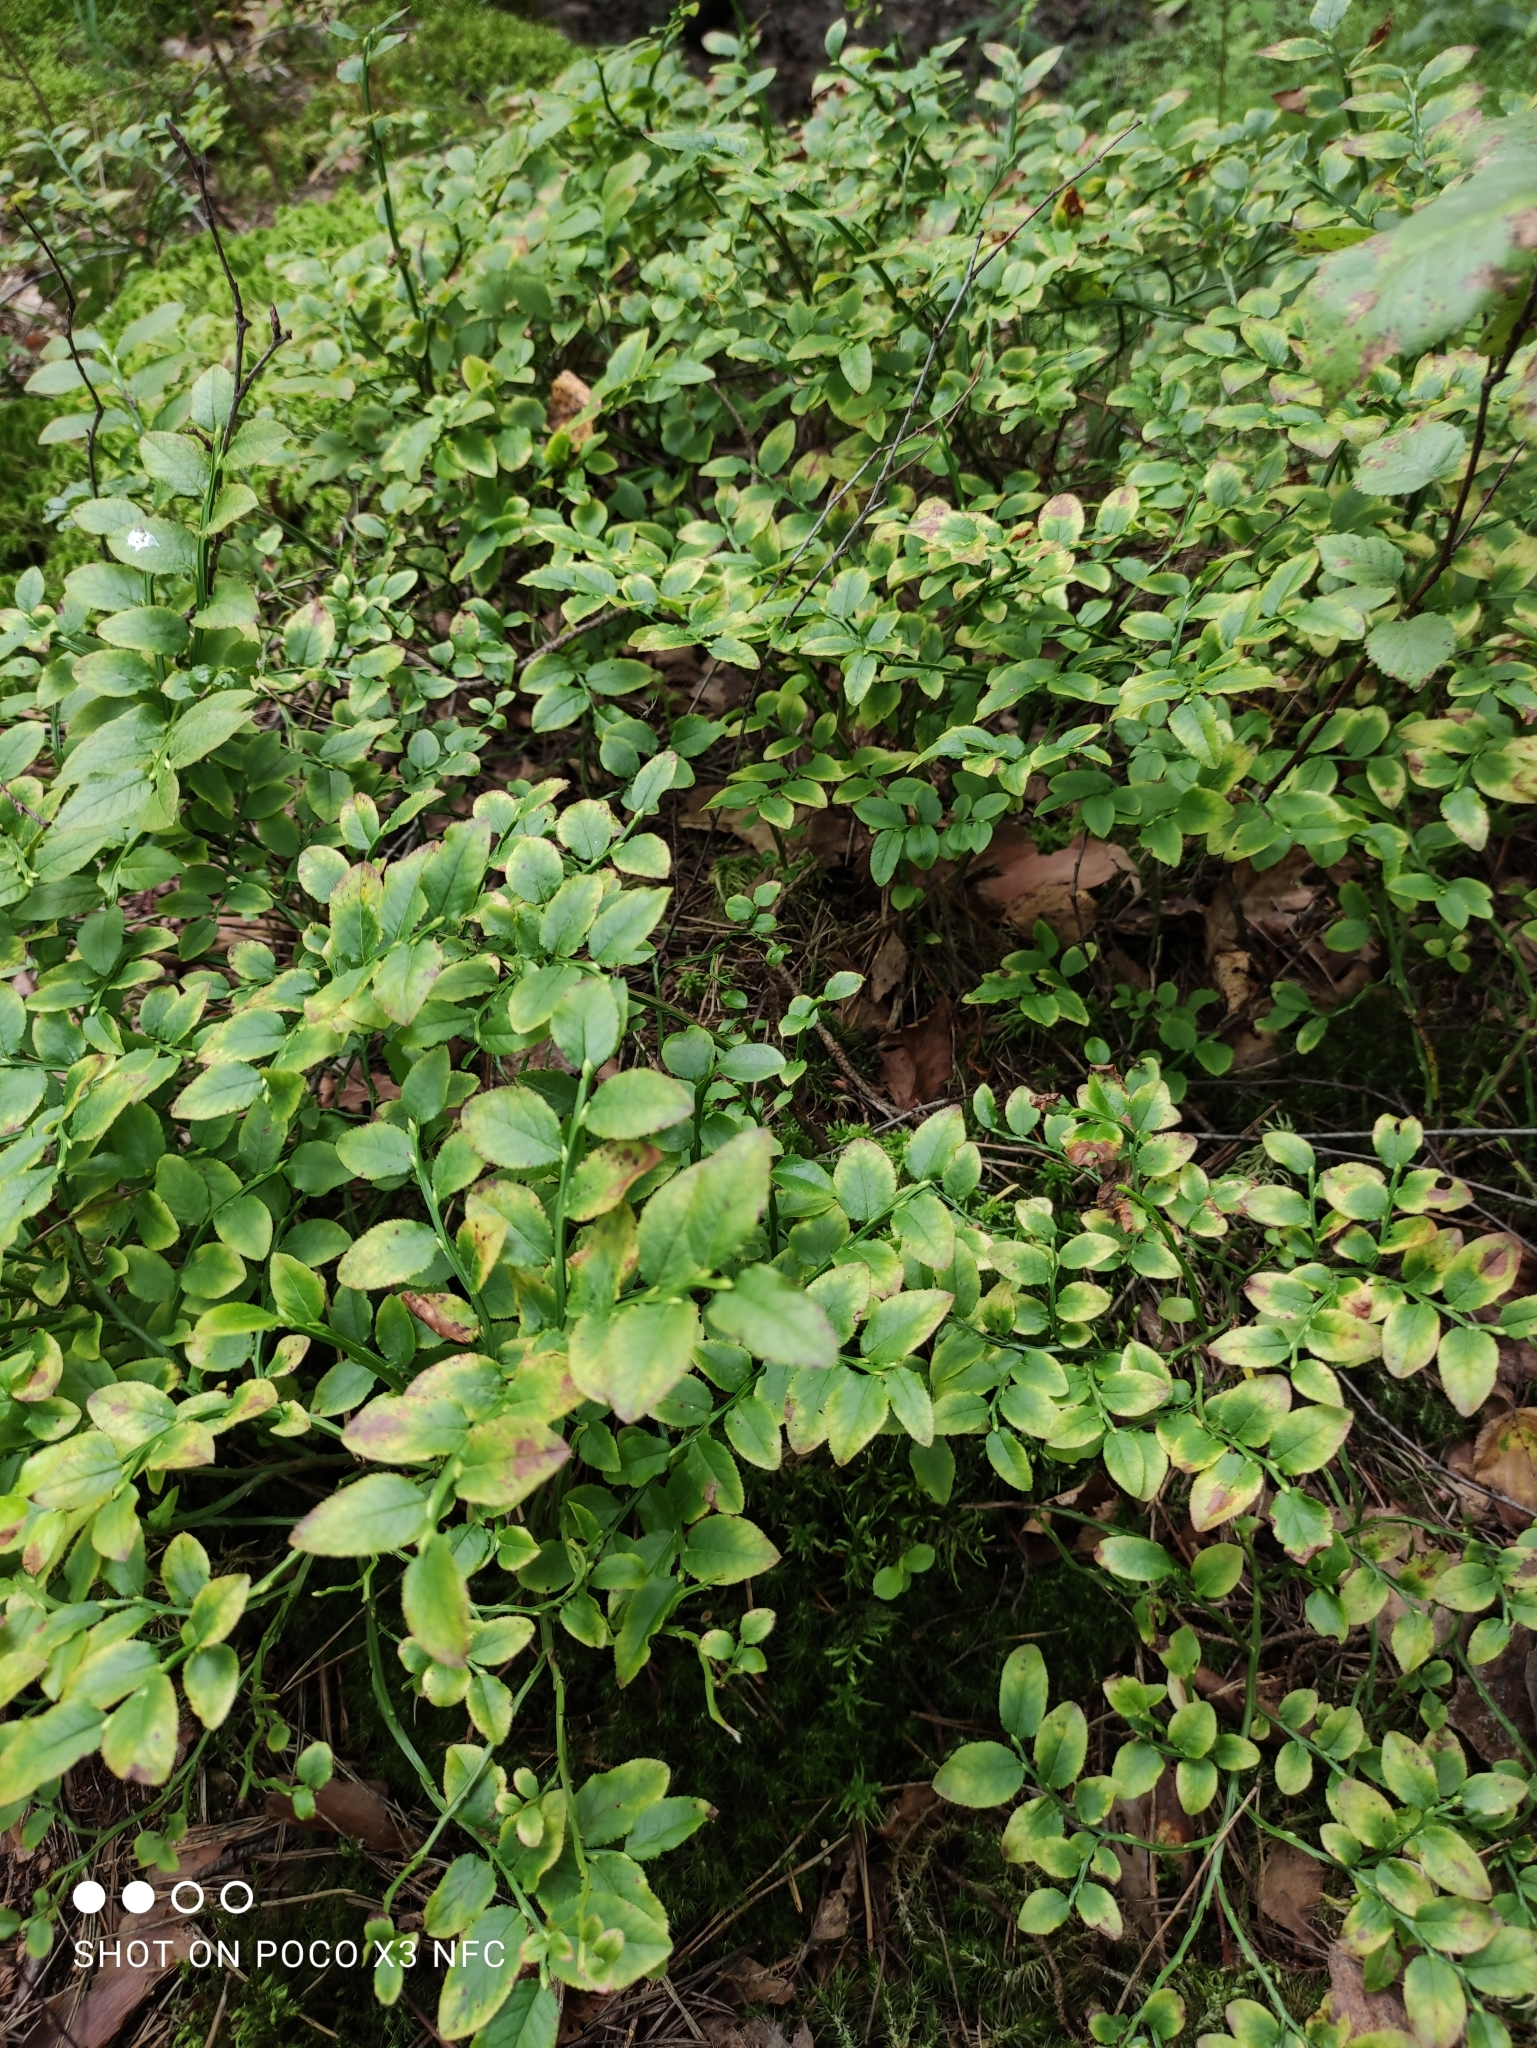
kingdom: Plantae
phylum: Tracheophyta
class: Magnoliopsida
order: Ericales
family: Ericaceae
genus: Vaccinium
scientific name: Vaccinium myrtillus
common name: Bilberry
